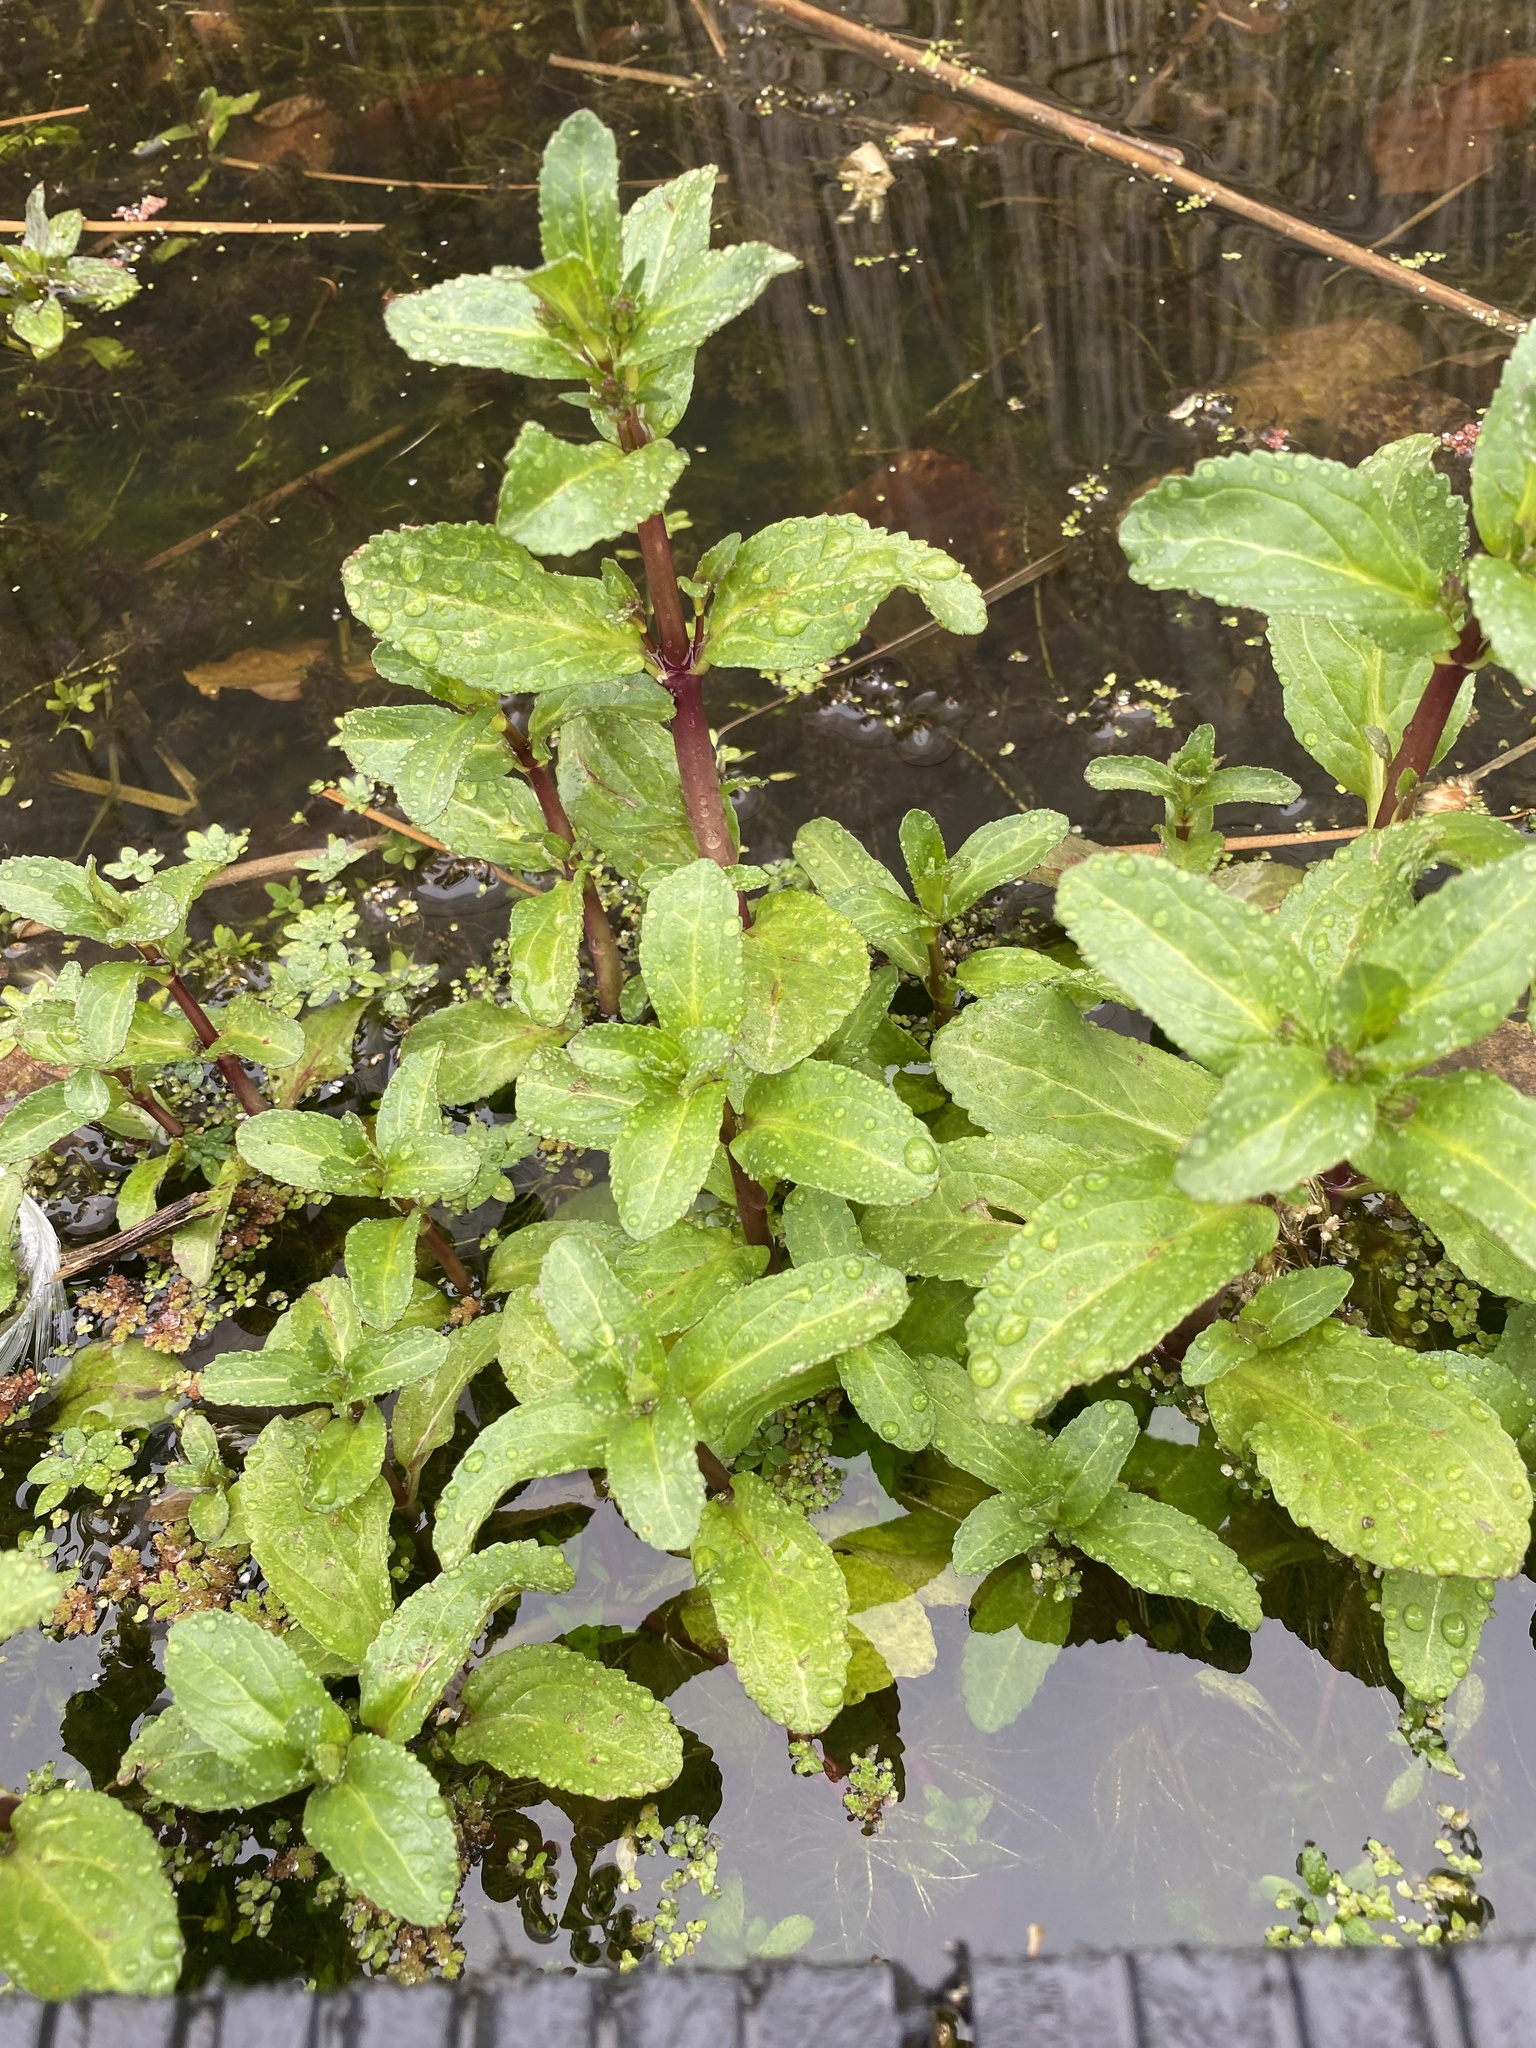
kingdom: Plantae
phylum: Tracheophyta
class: Magnoliopsida
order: Lamiales
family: Plantaginaceae
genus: Veronica
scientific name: Veronica beccabunga
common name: Brooklime
